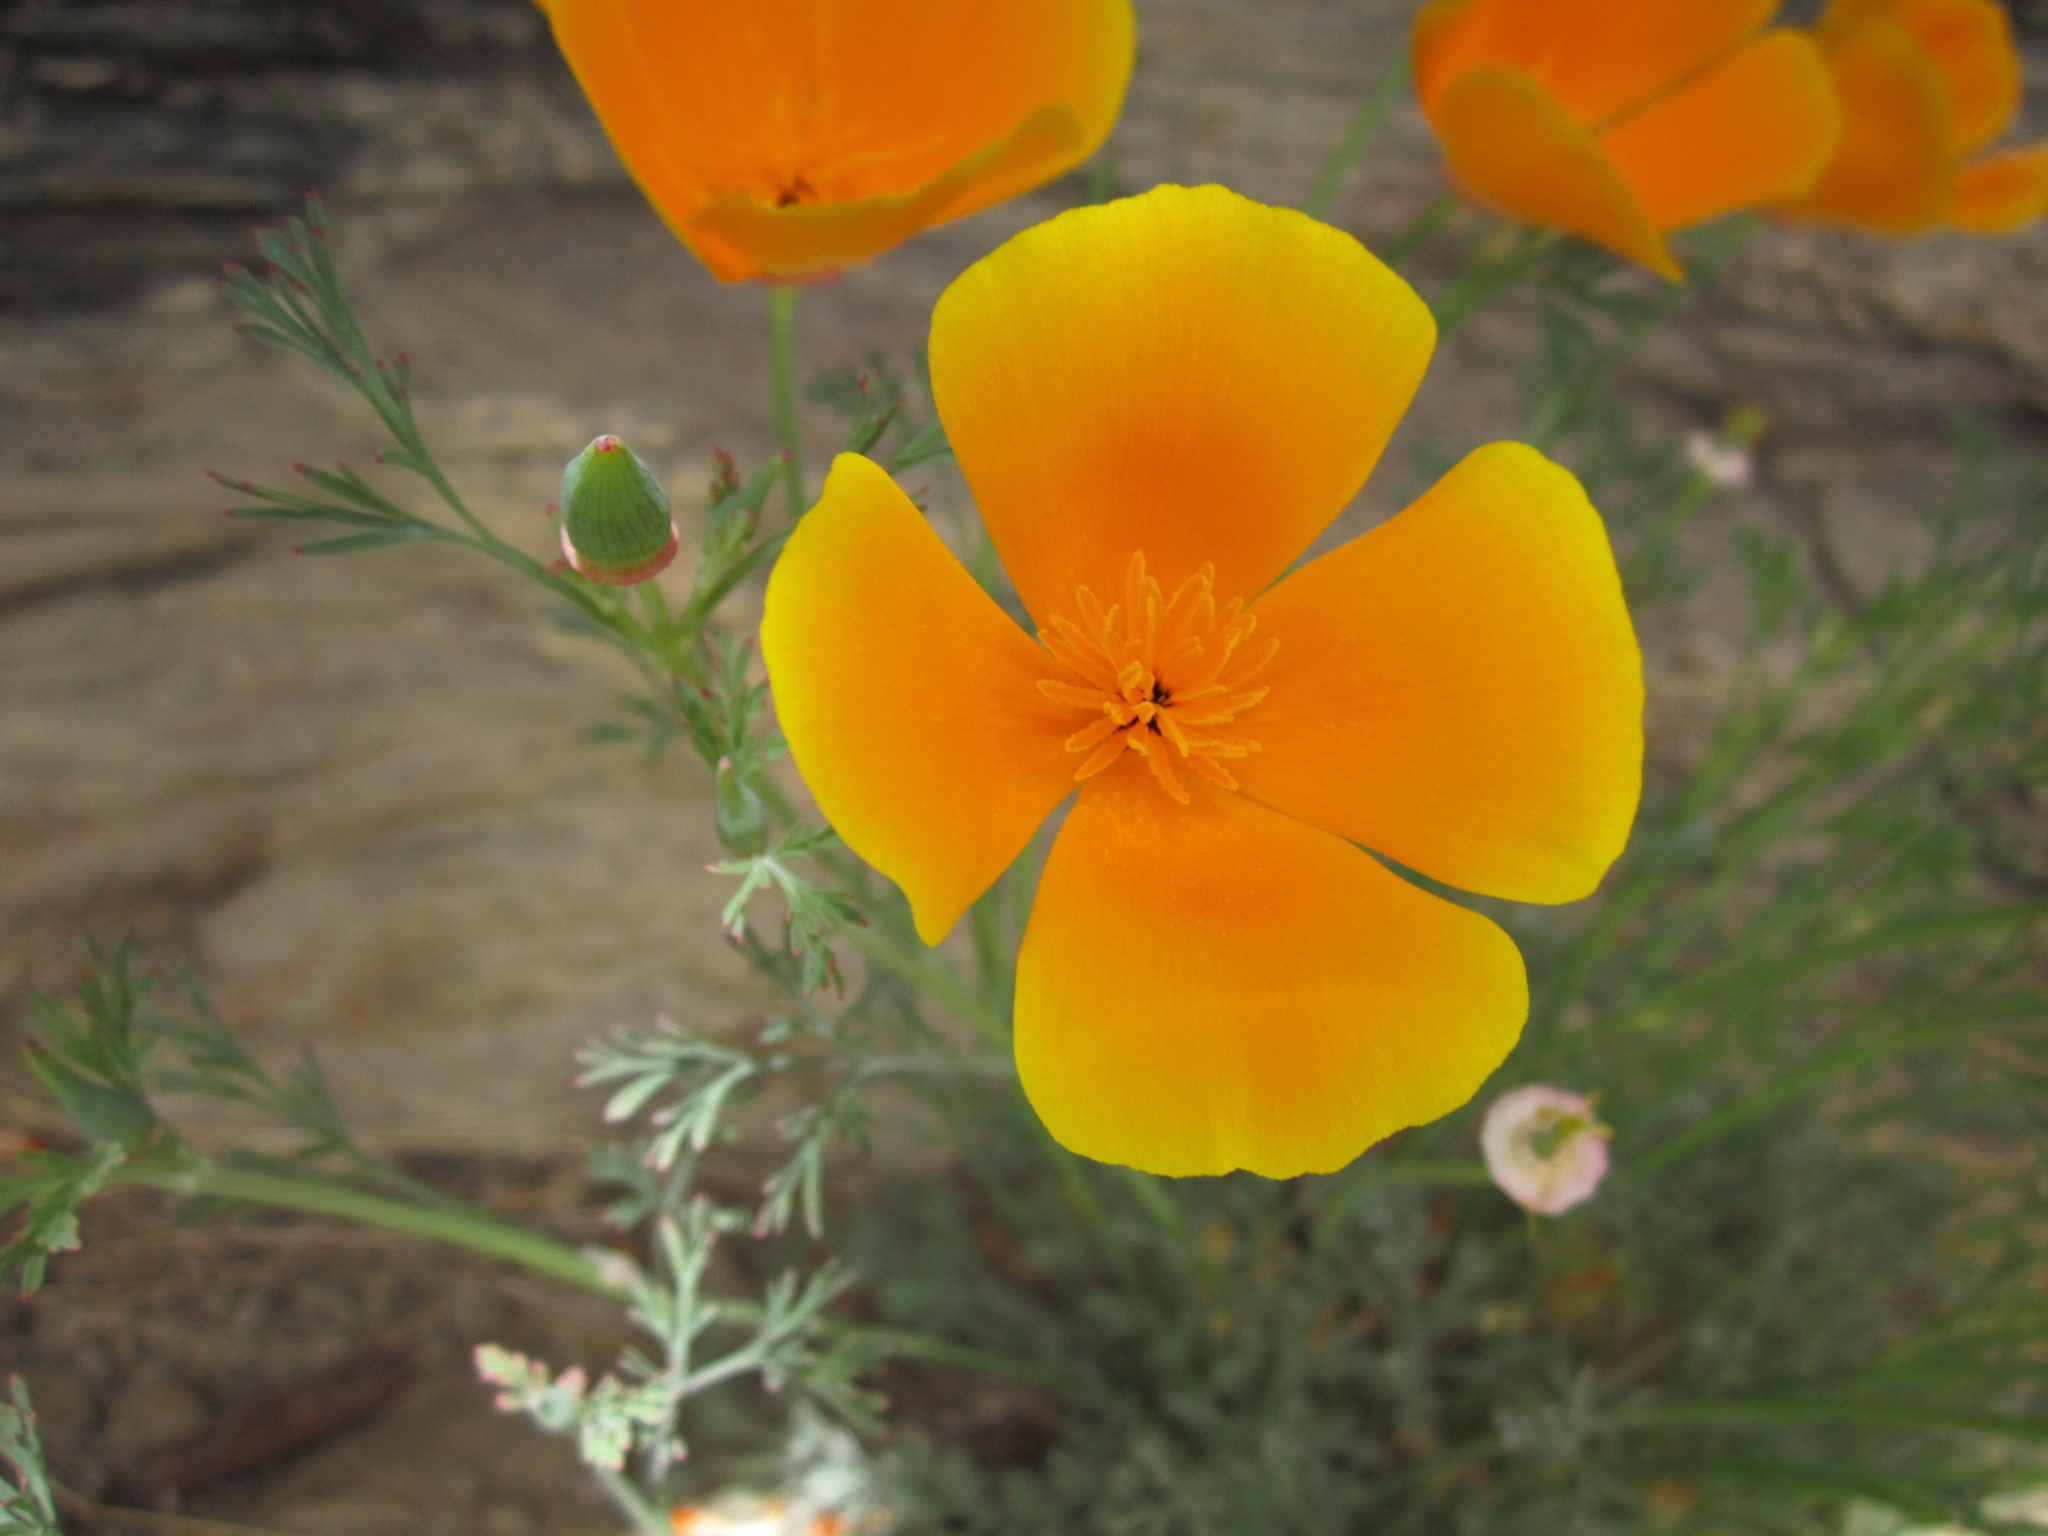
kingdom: Plantae
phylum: Tracheophyta
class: Magnoliopsida
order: Ranunculales
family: Papaveraceae
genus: Eschscholzia
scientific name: Eschscholzia californica
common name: California poppy
